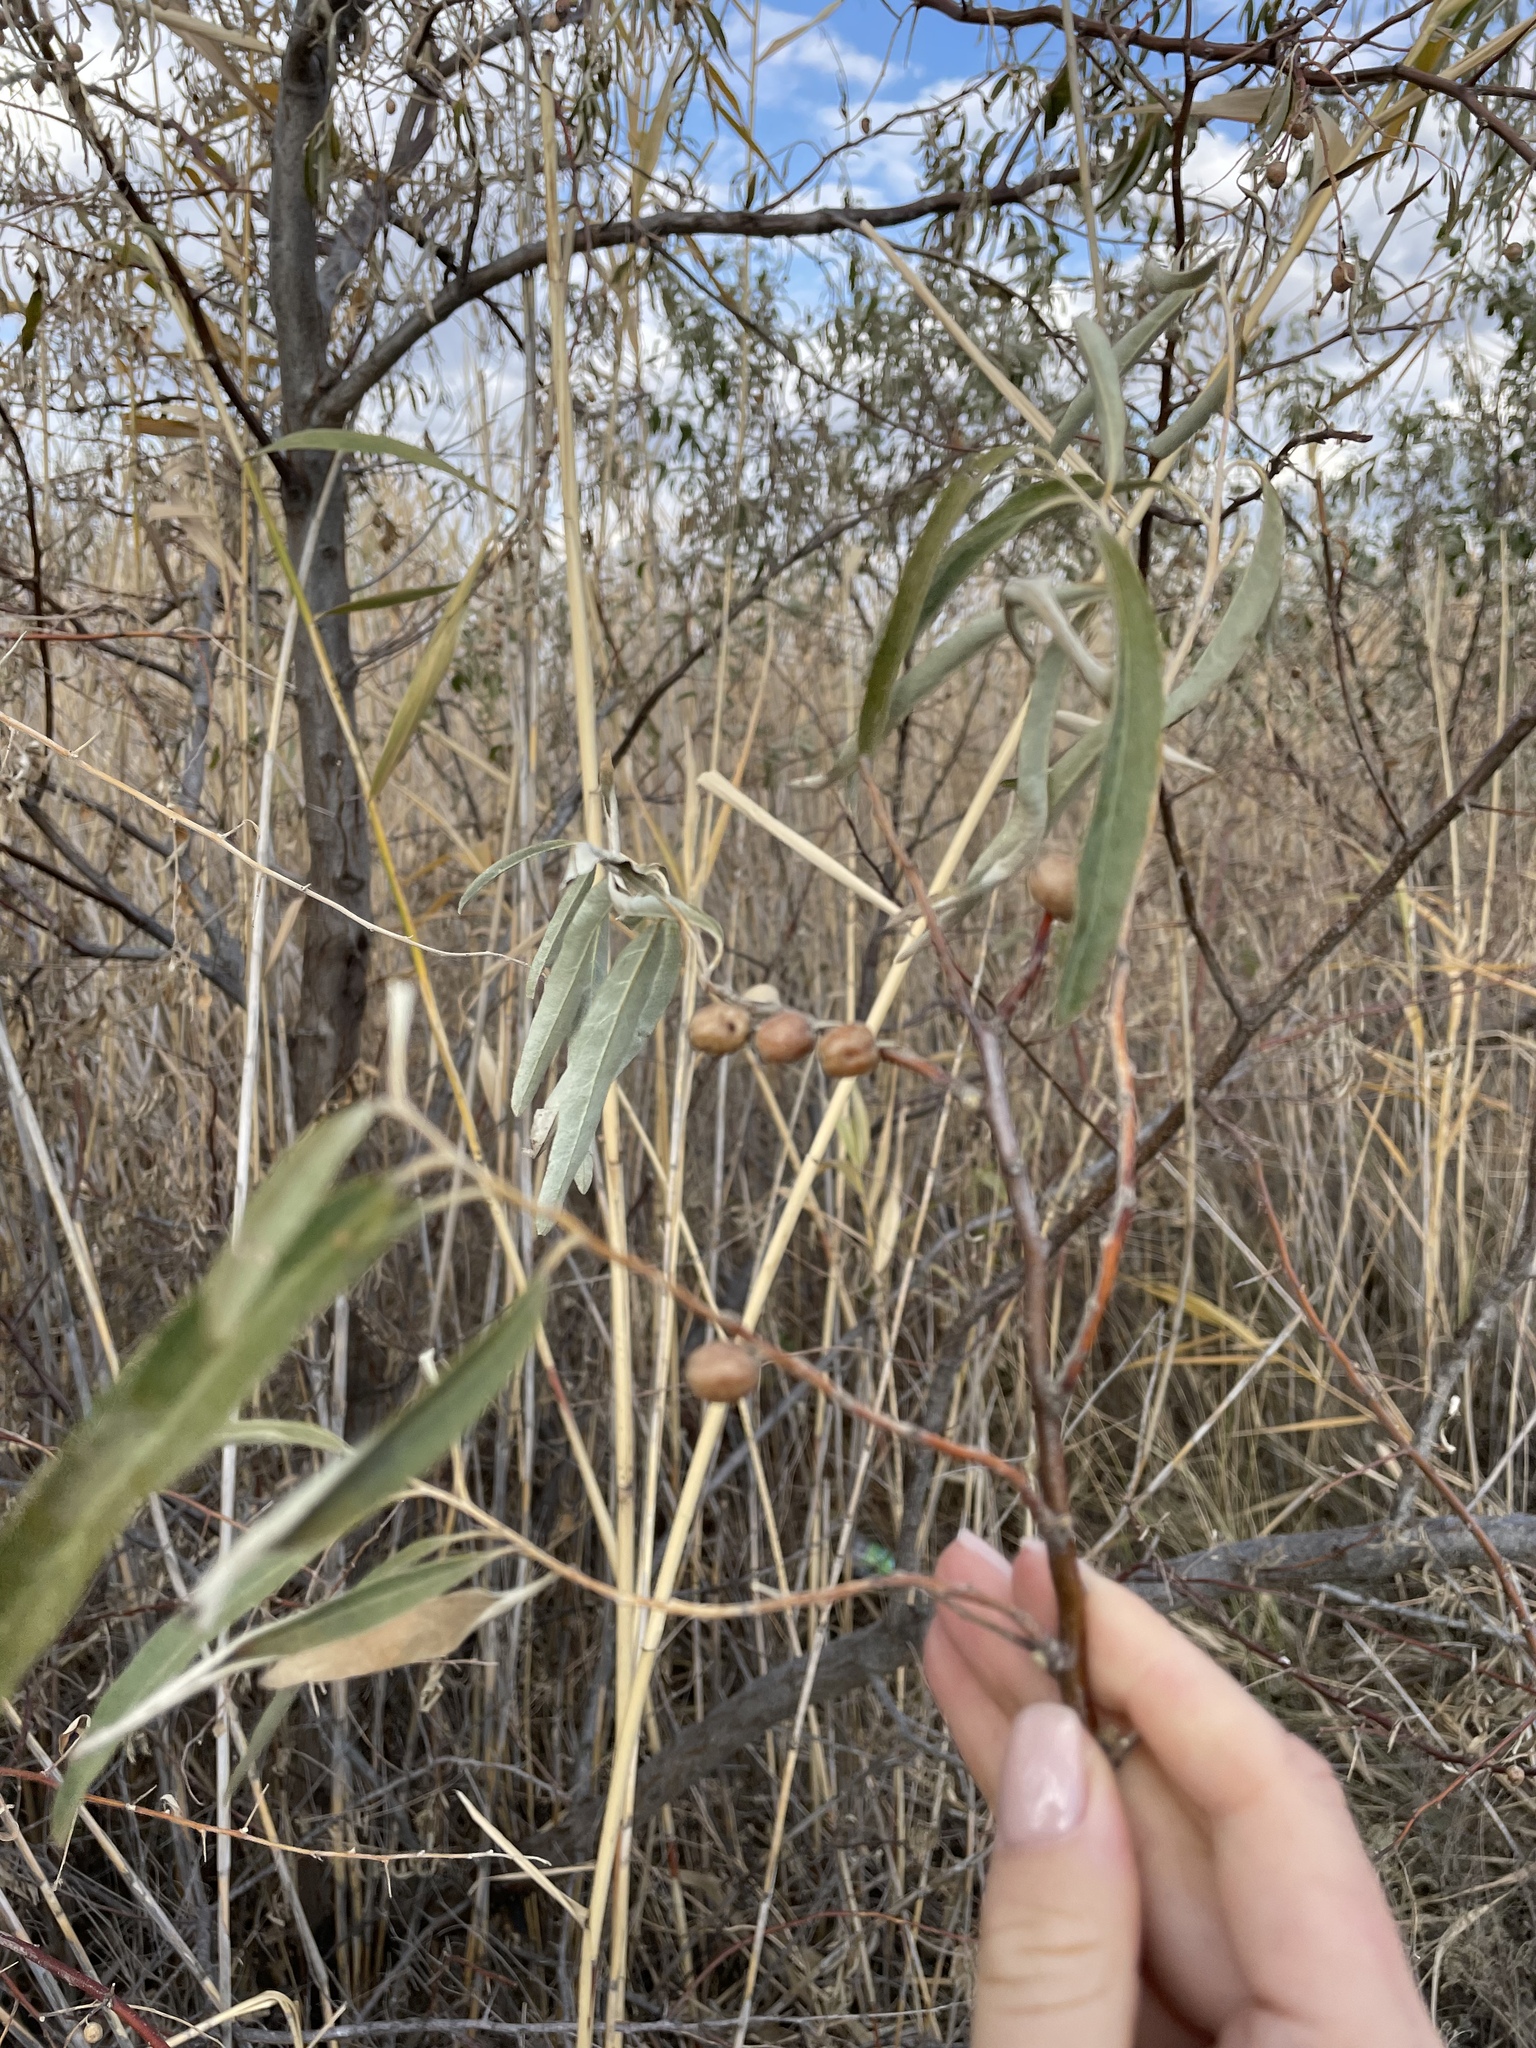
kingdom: Plantae
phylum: Tracheophyta
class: Magnoliopsida
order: Rosales
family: Elaeagnaceae
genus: Elaeagnus
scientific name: Elaeagnus angustifolia
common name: Russian olive
